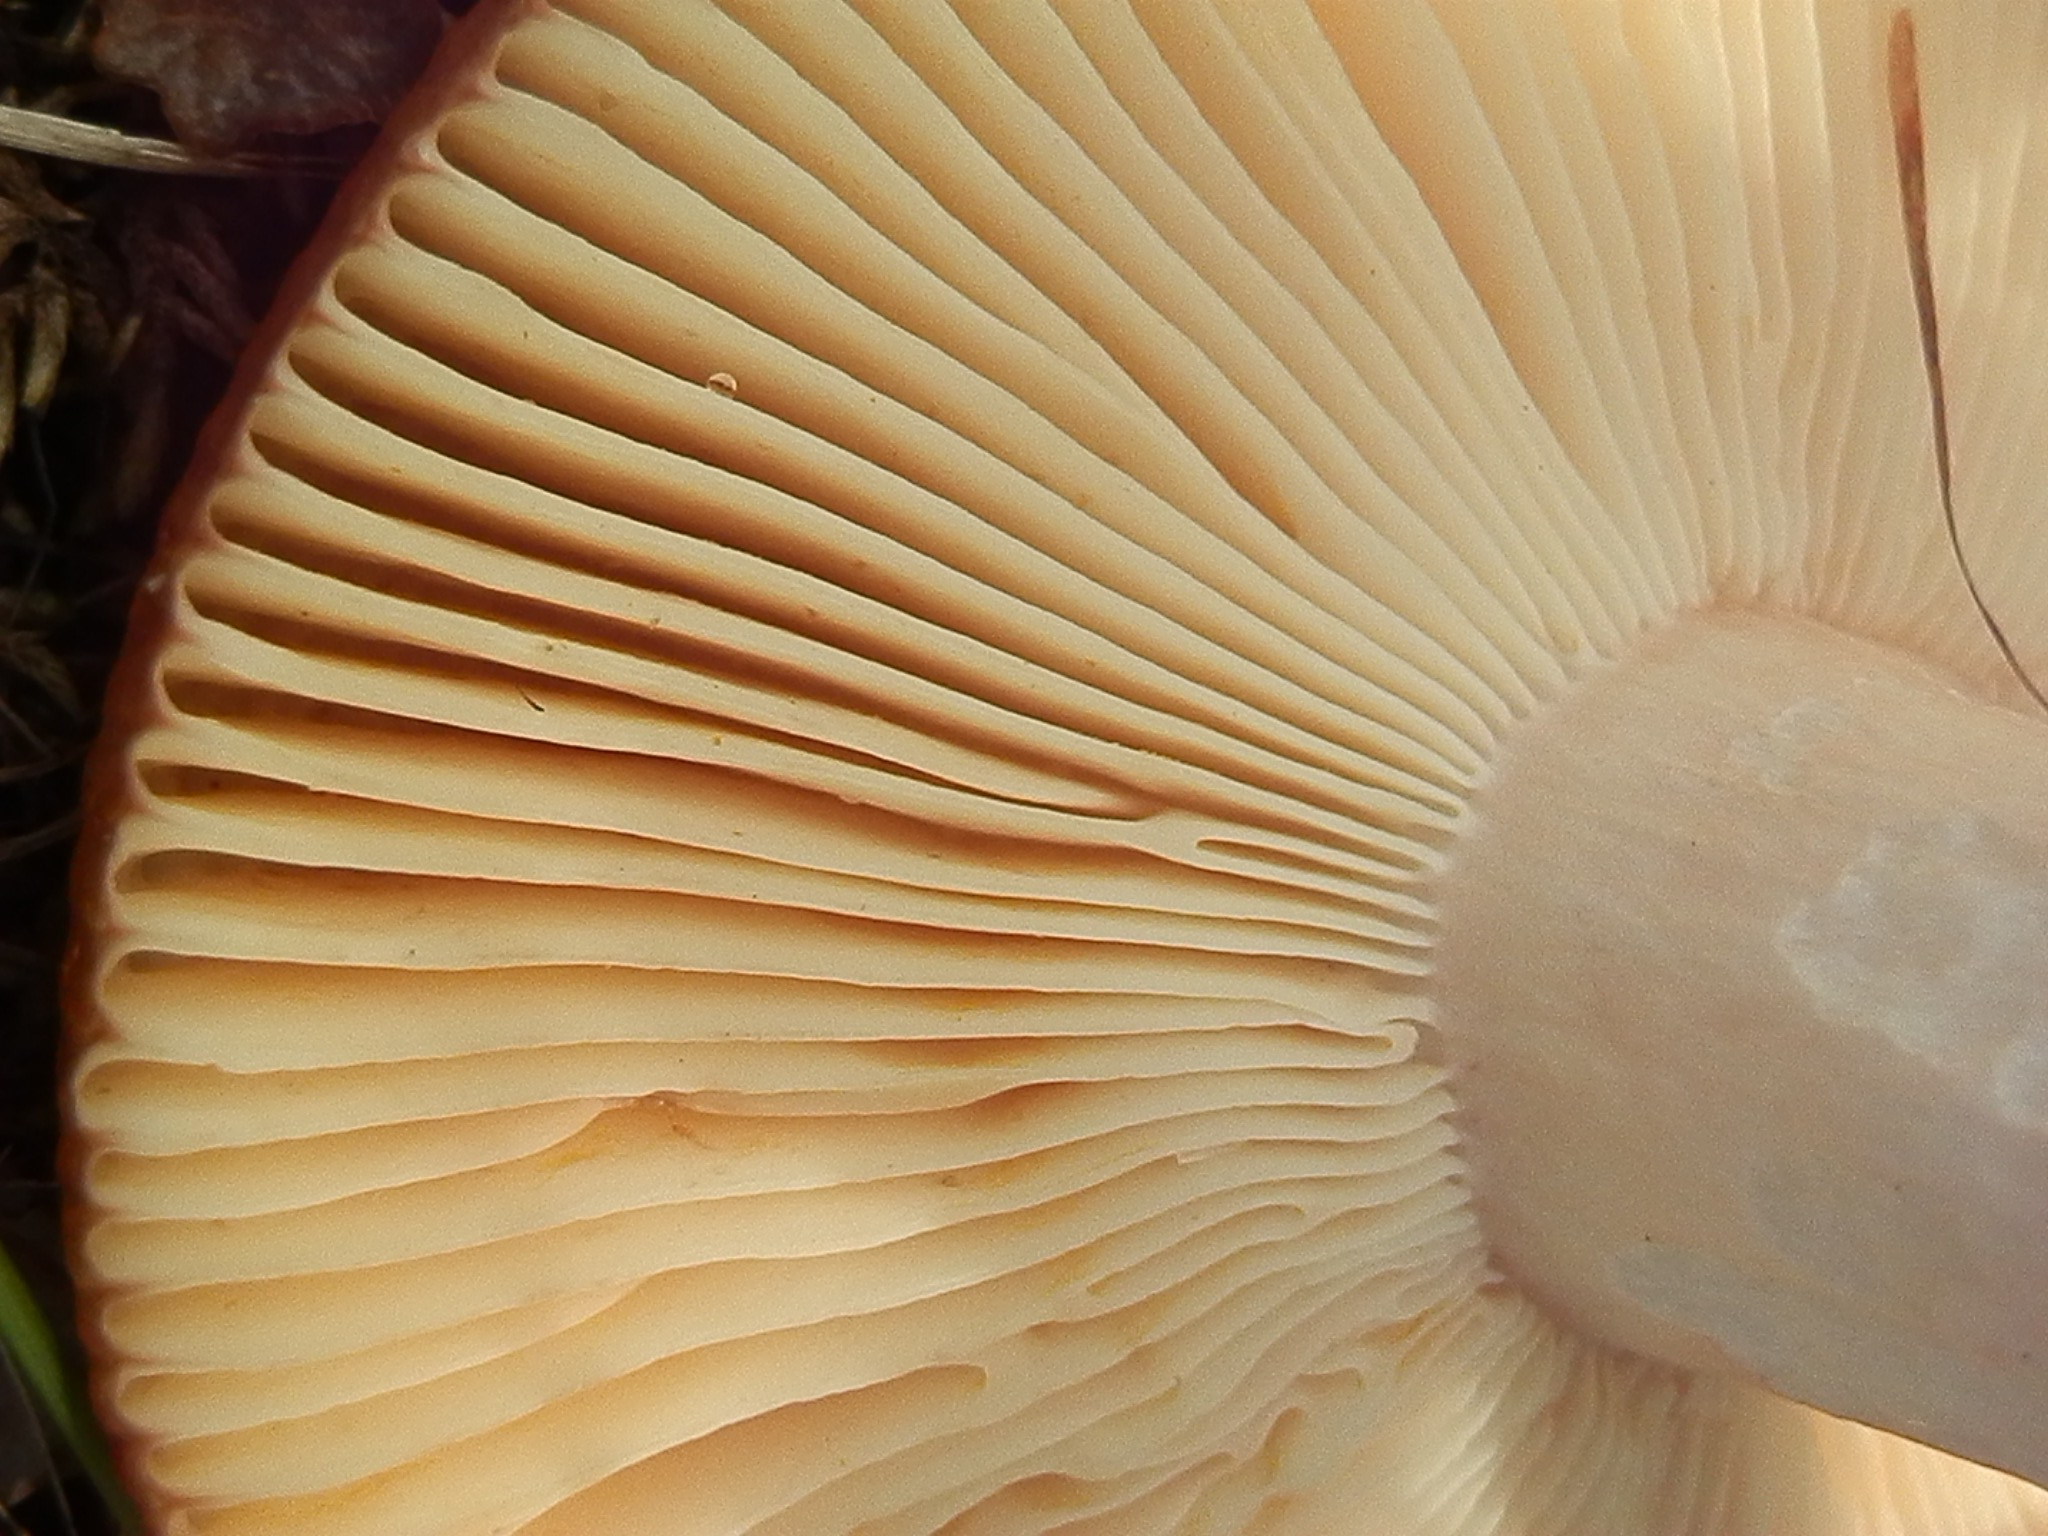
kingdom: Fungi
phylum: Basidiomycota
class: Agaricomycetes
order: Russulales
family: Russulaceae
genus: Russula
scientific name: Russula robertii
